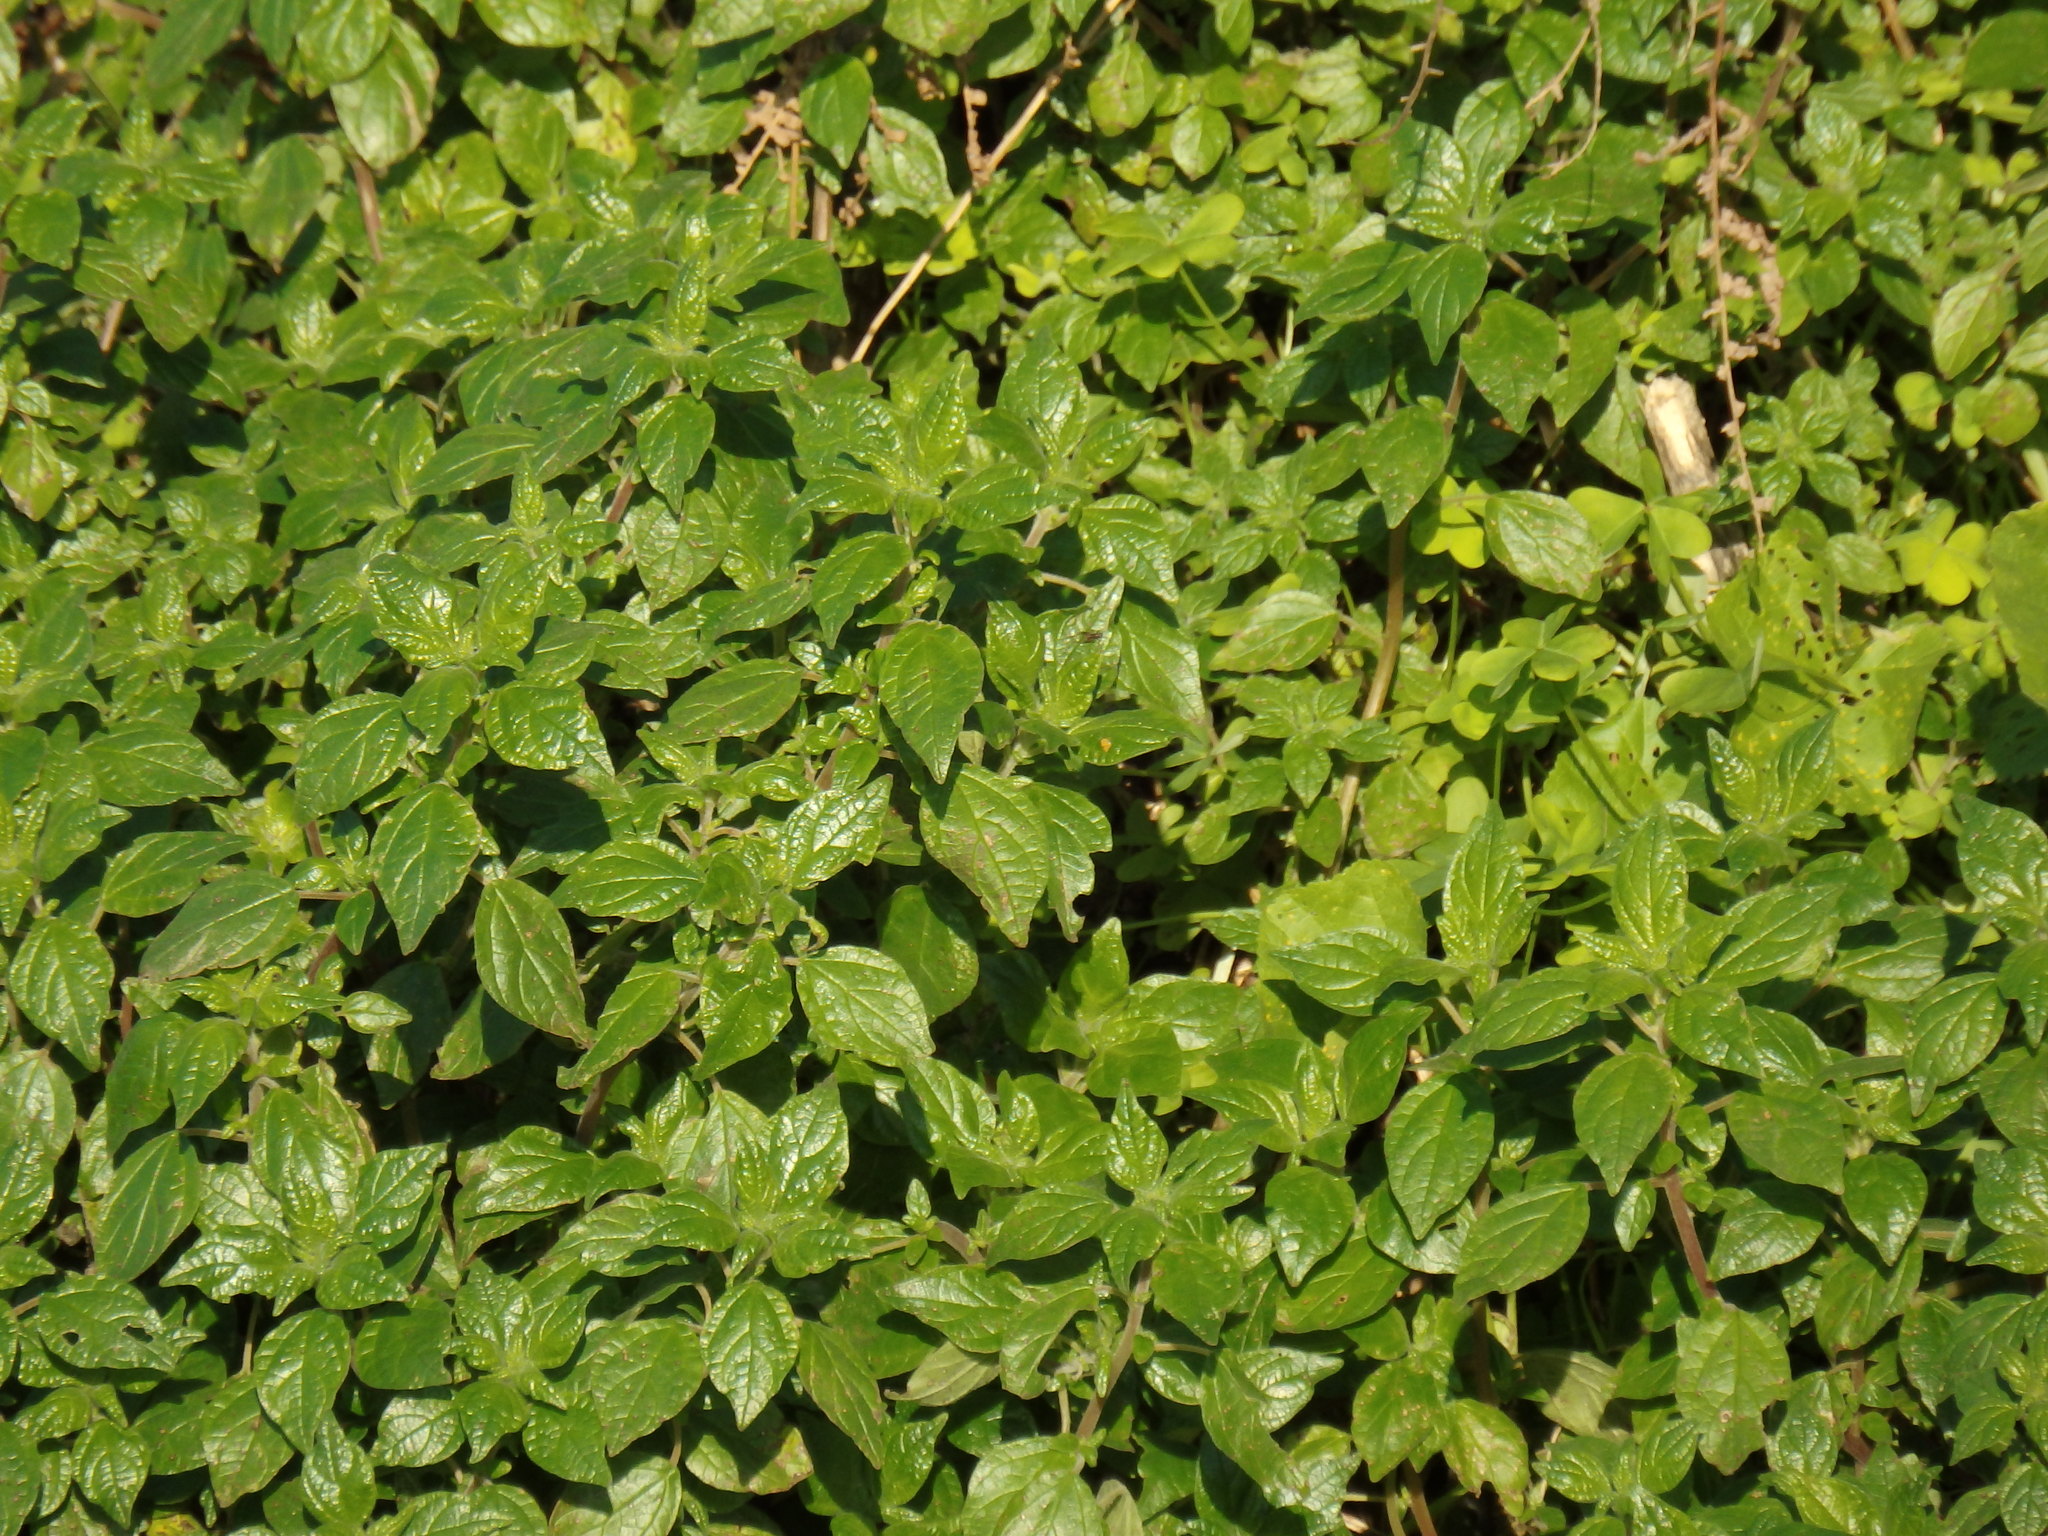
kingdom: Plantae
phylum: Tracheophyta
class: Magnoliopsida
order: Rosales
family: Urticaceae
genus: Parietaria
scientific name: Parietaria judaica
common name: Pellitory-of-the-wall
